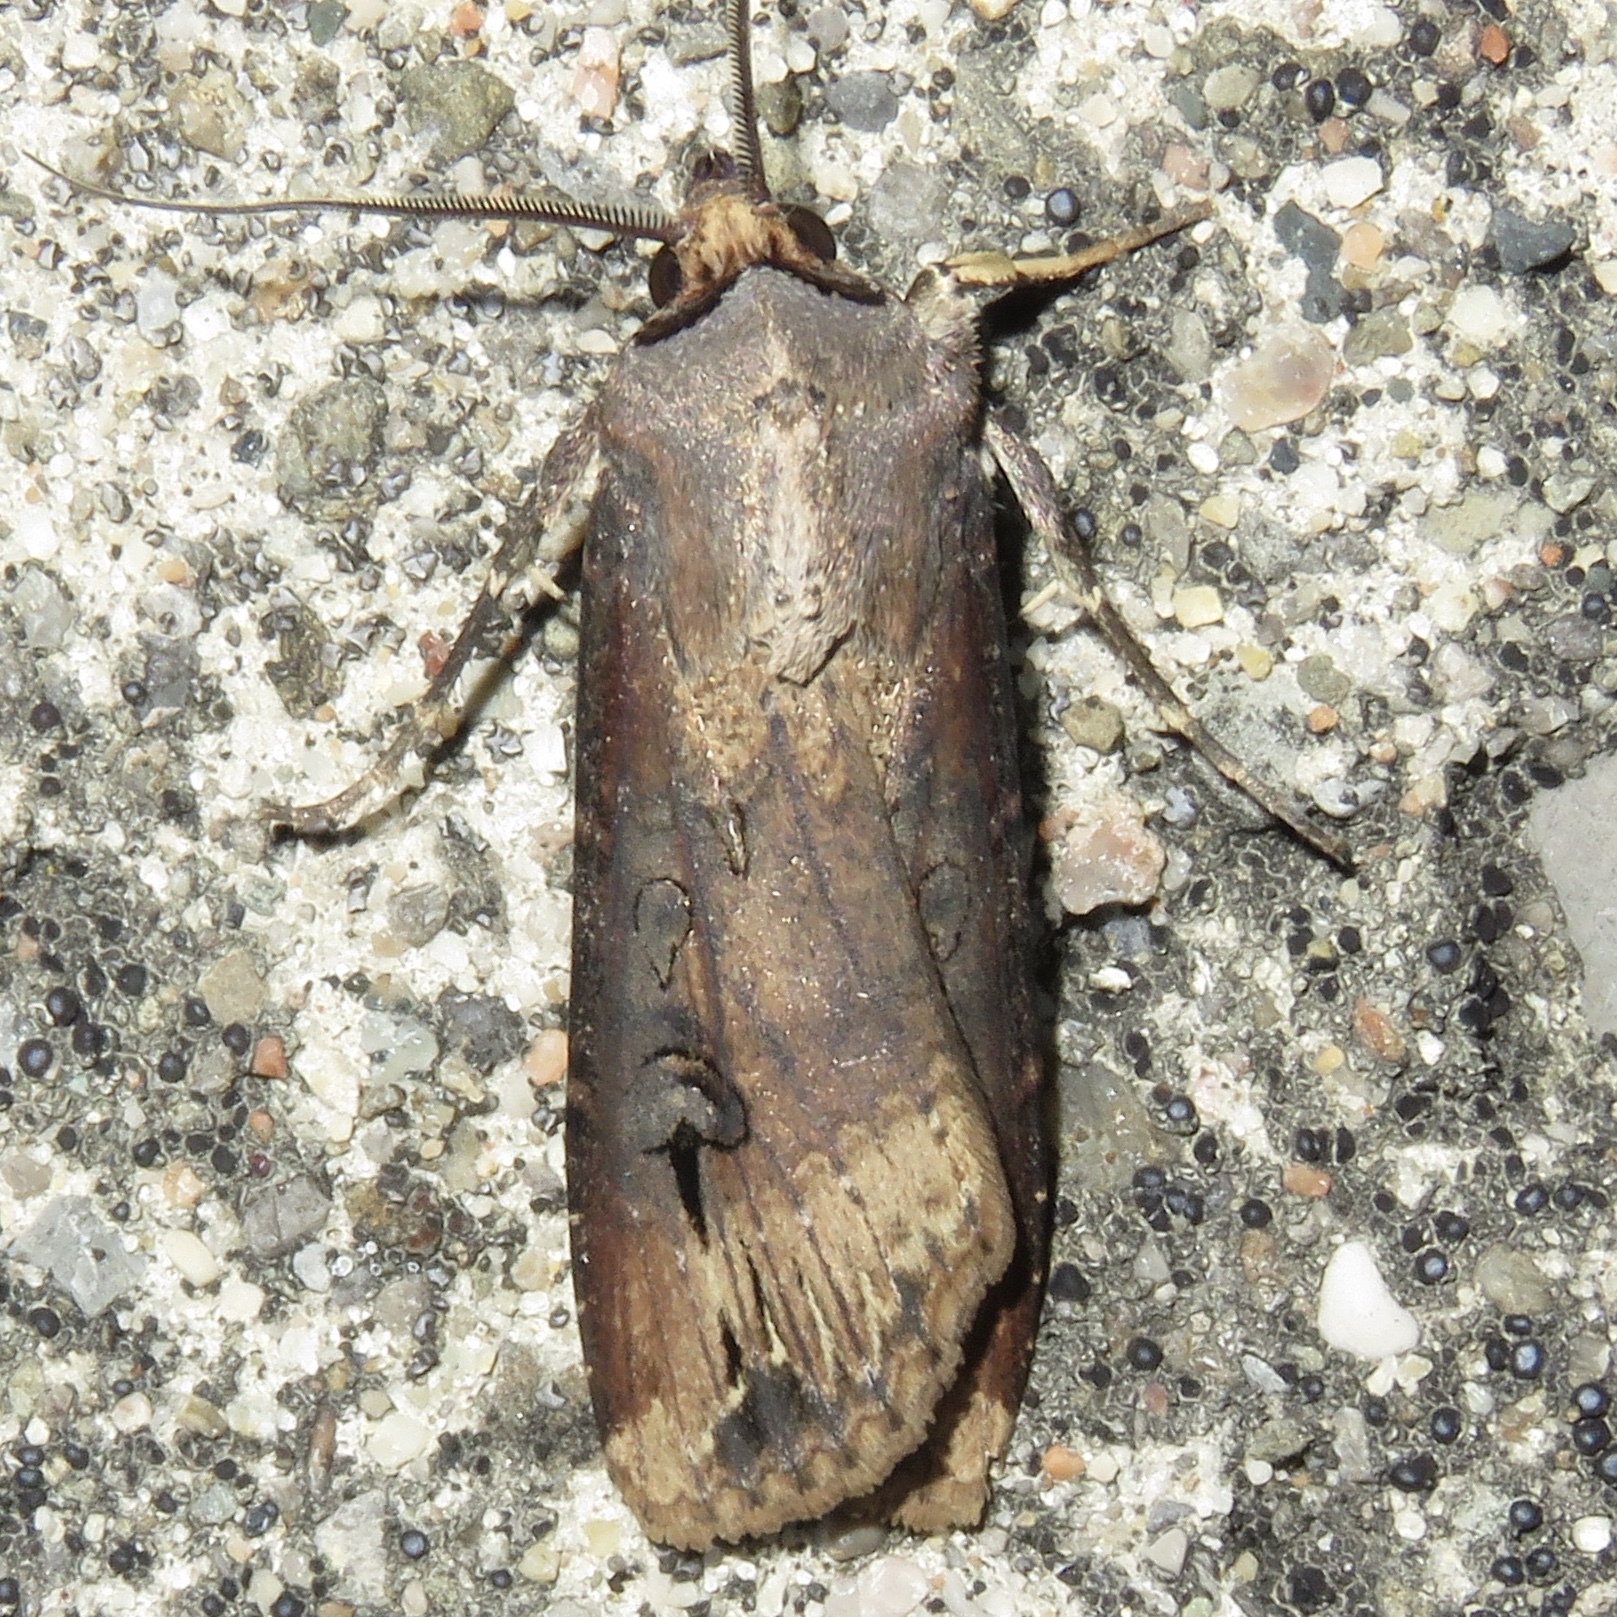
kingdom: Animalia
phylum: Arthropoda
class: Insecta
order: Lepidoptera
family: Noctuidae
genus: Agrotis
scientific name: Agrotis ipsilon
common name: Dark sword-grass
